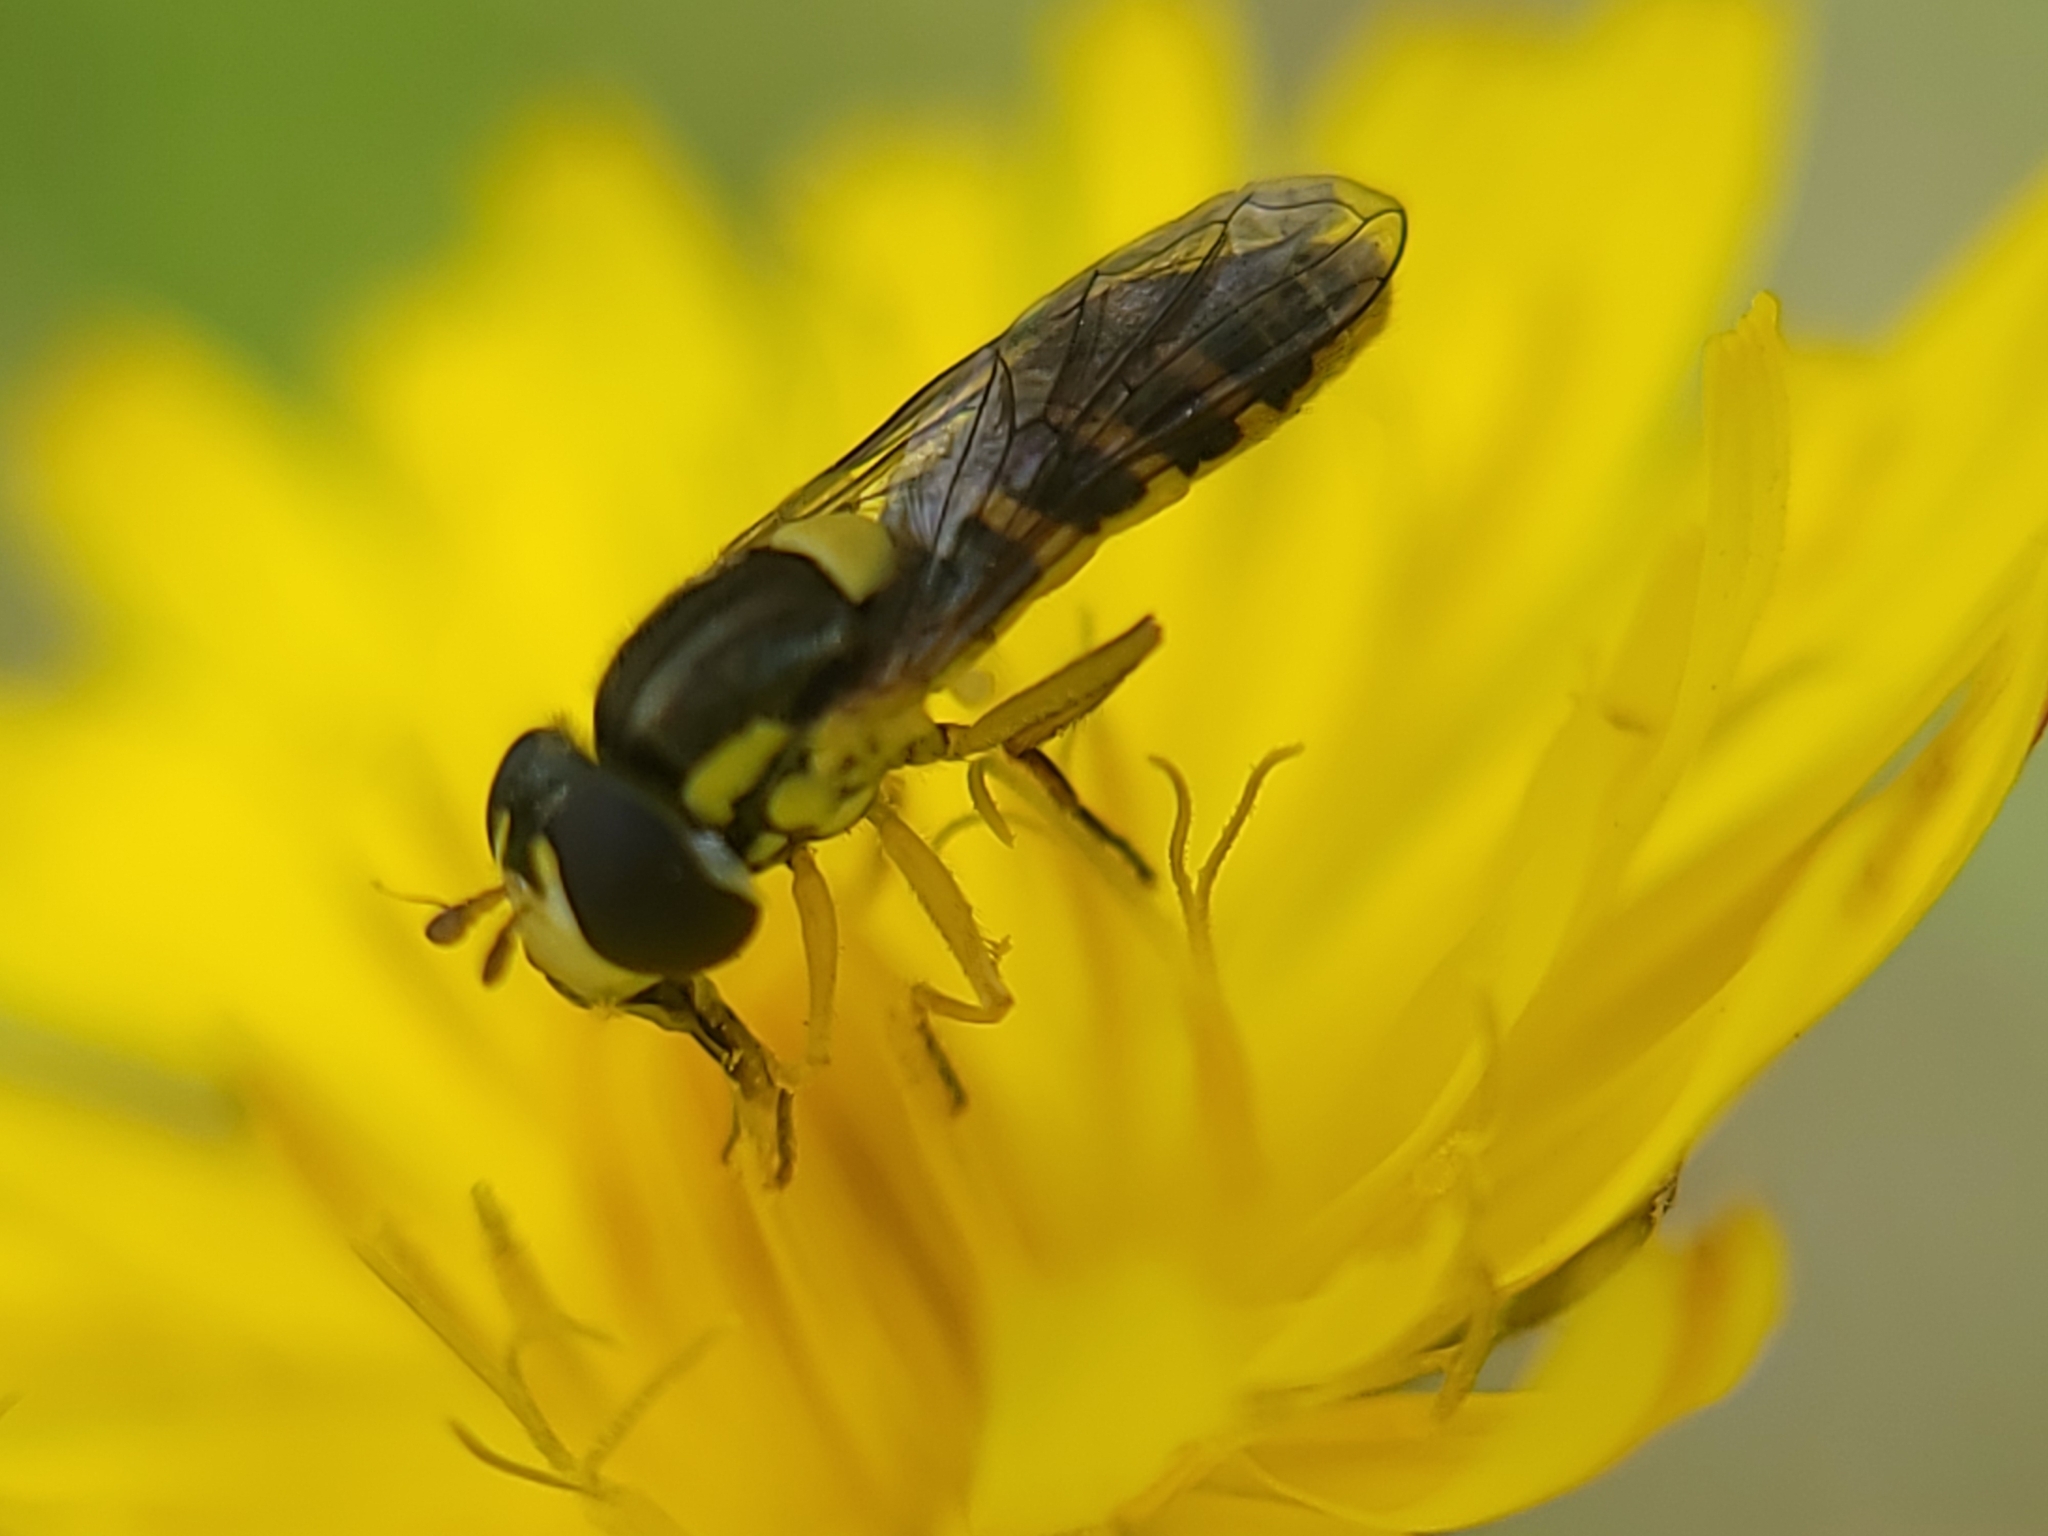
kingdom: Animalia
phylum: Arthropoda
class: Insecta
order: Diptera
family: Syrphidae
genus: Sphaerophoria
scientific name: Sphaerophoria sulphuripes
